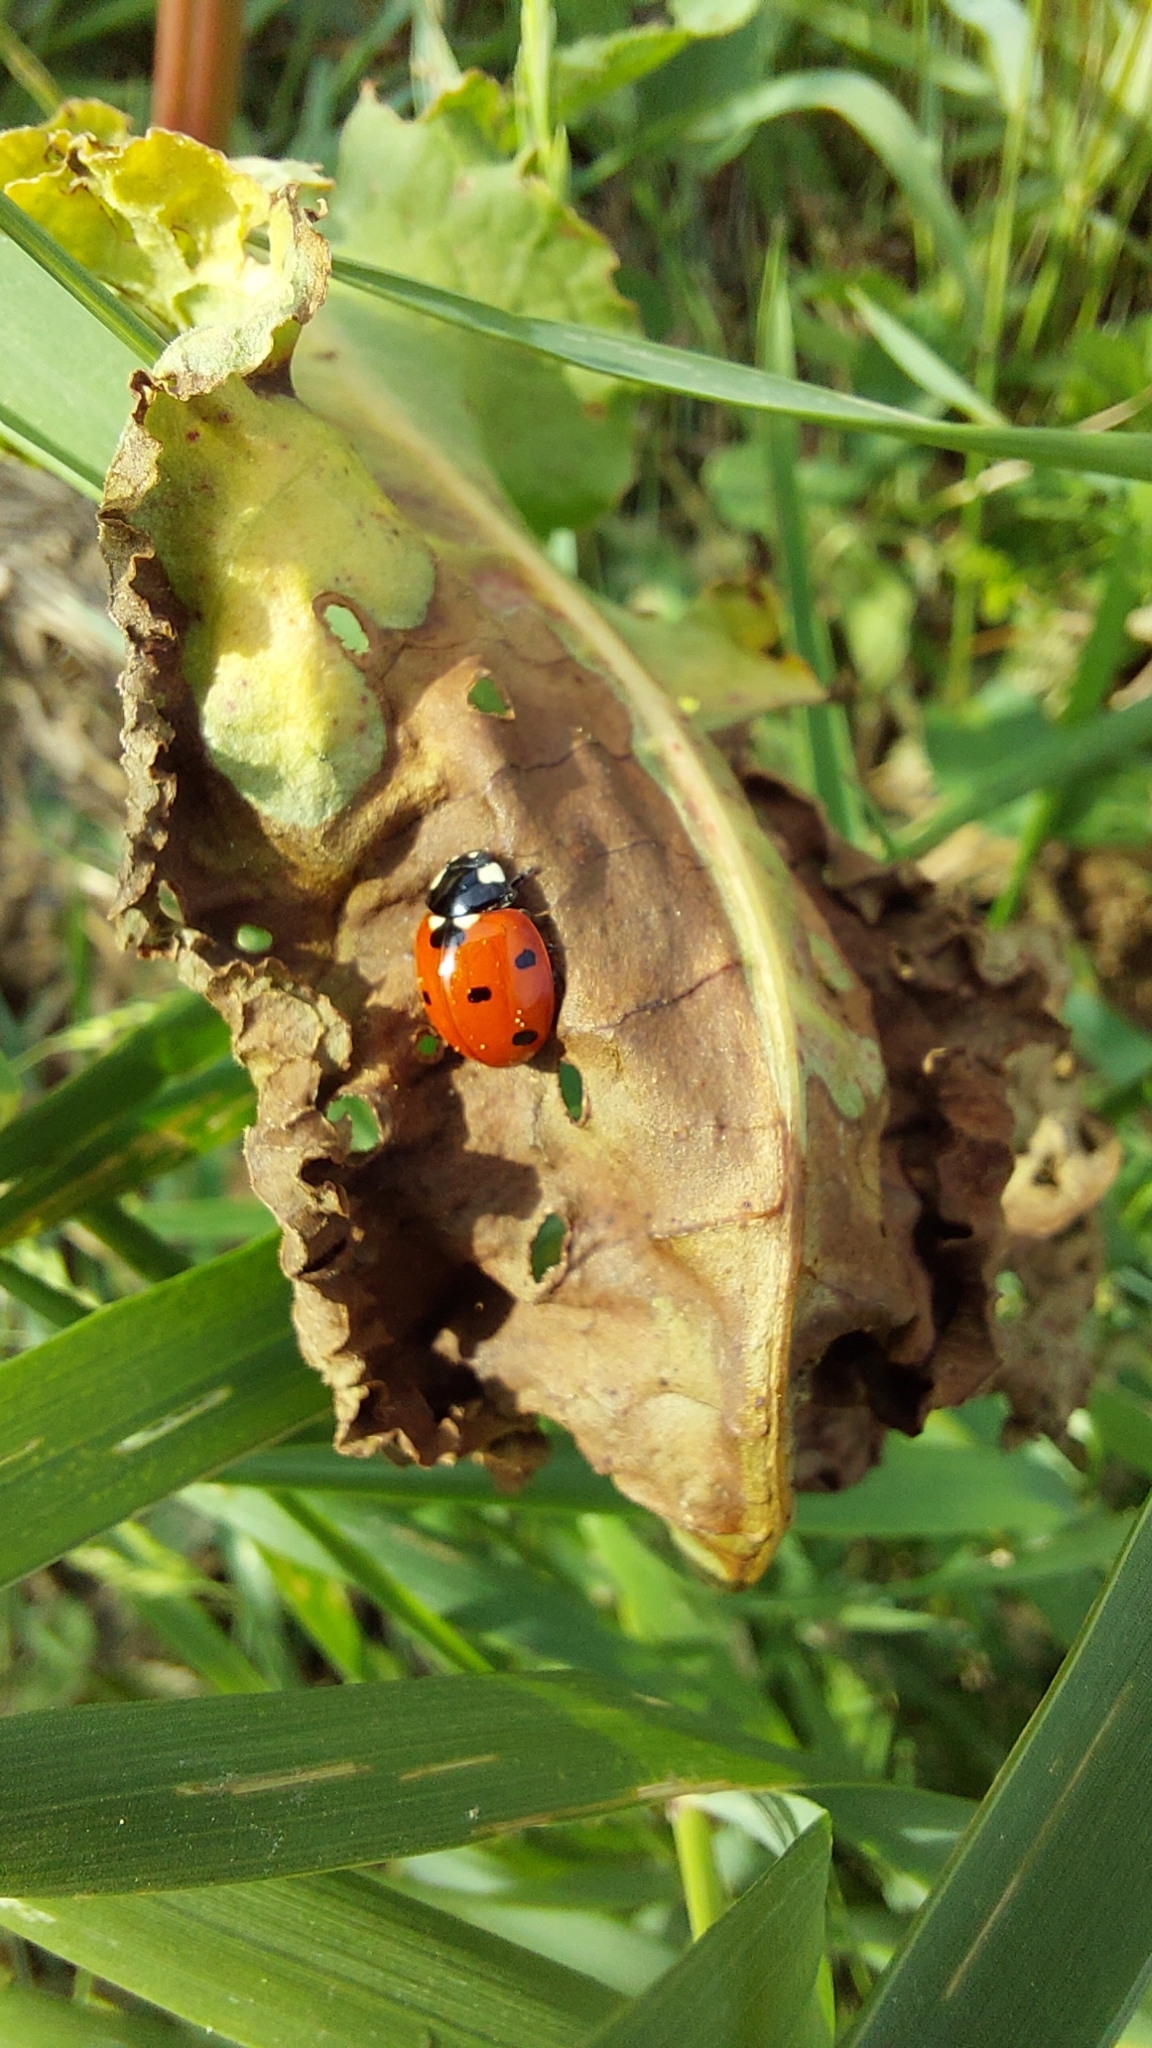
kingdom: Animalia
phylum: Arthropoda
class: Insecta
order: Coleoptera
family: Coccinellidae
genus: Coccinella
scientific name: Coccinella septempunctata
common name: Sevenspotted lady beetle
